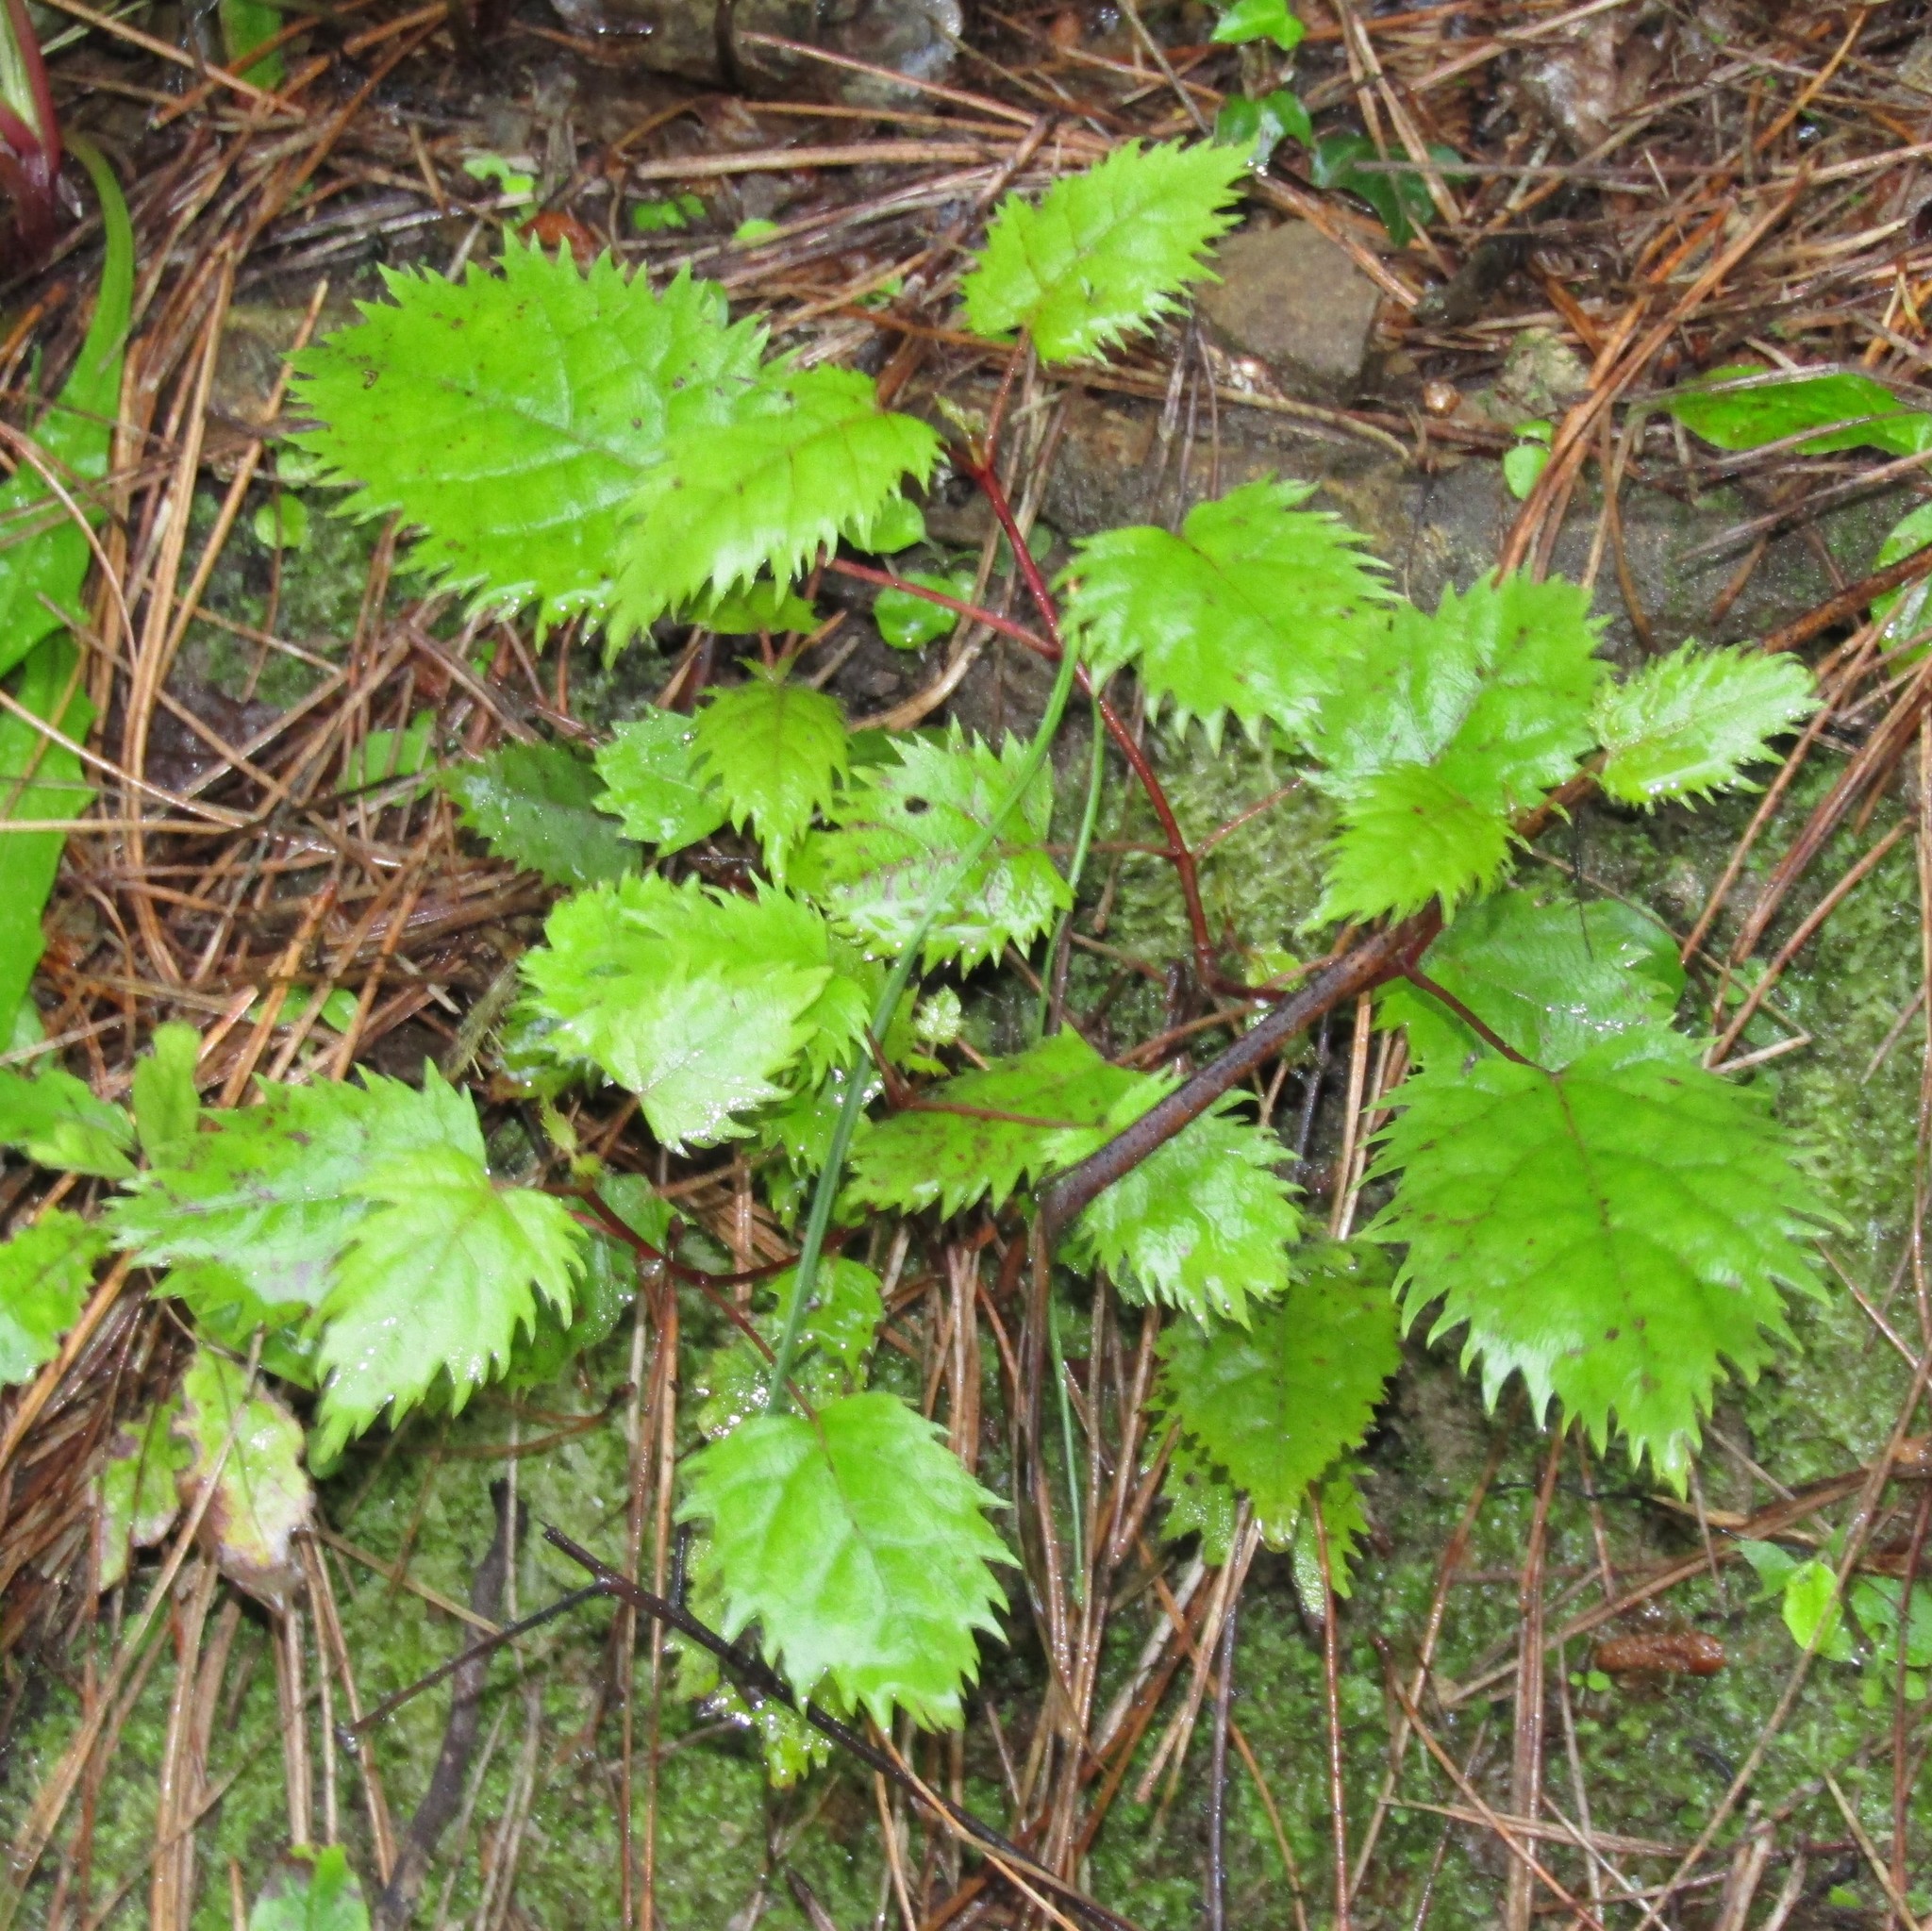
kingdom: Plantae
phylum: Tracheophyta
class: Magnoliopsida
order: Oxalidales
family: Elaeocarpaceae
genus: Aristotelia
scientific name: Aristotelia serrata
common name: New zealand wineberry
